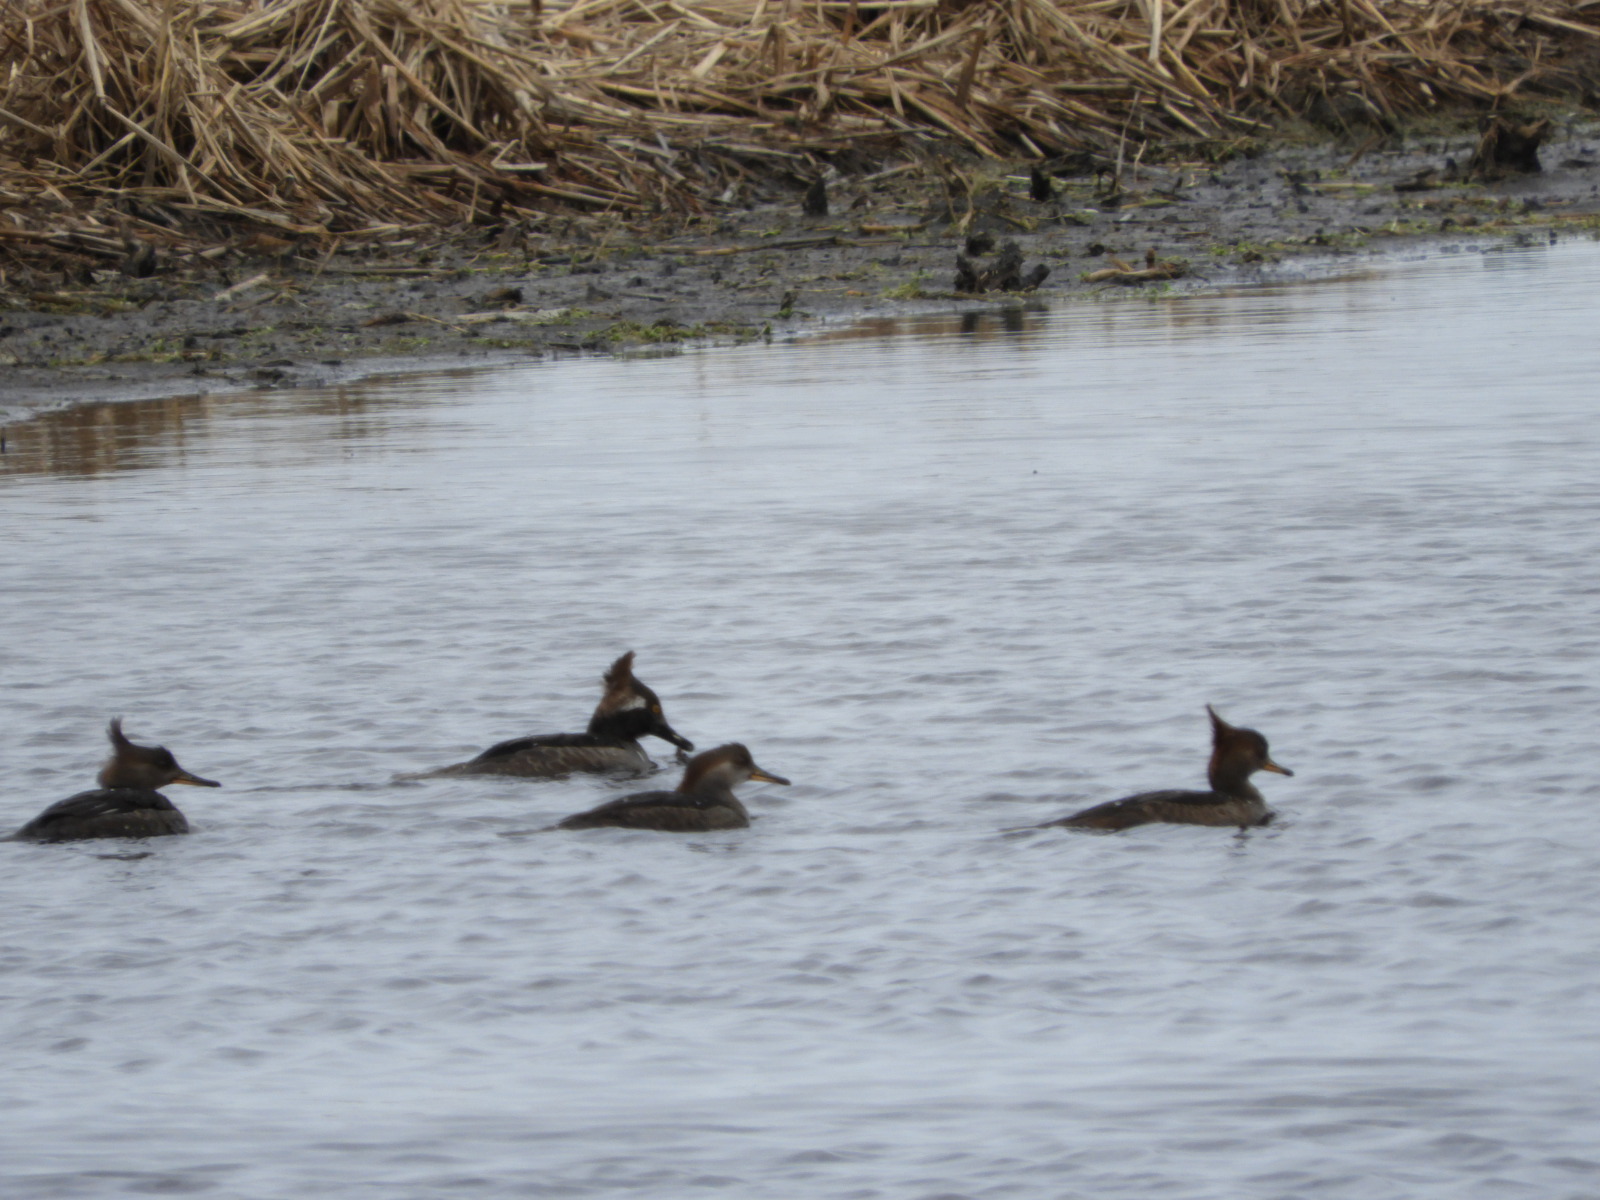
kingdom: Animalia
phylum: Chordata
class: Aves
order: Anseriformes
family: Anatidae
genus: Lophodytes
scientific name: Lophodytes cucullatus
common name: Hooded merganser
